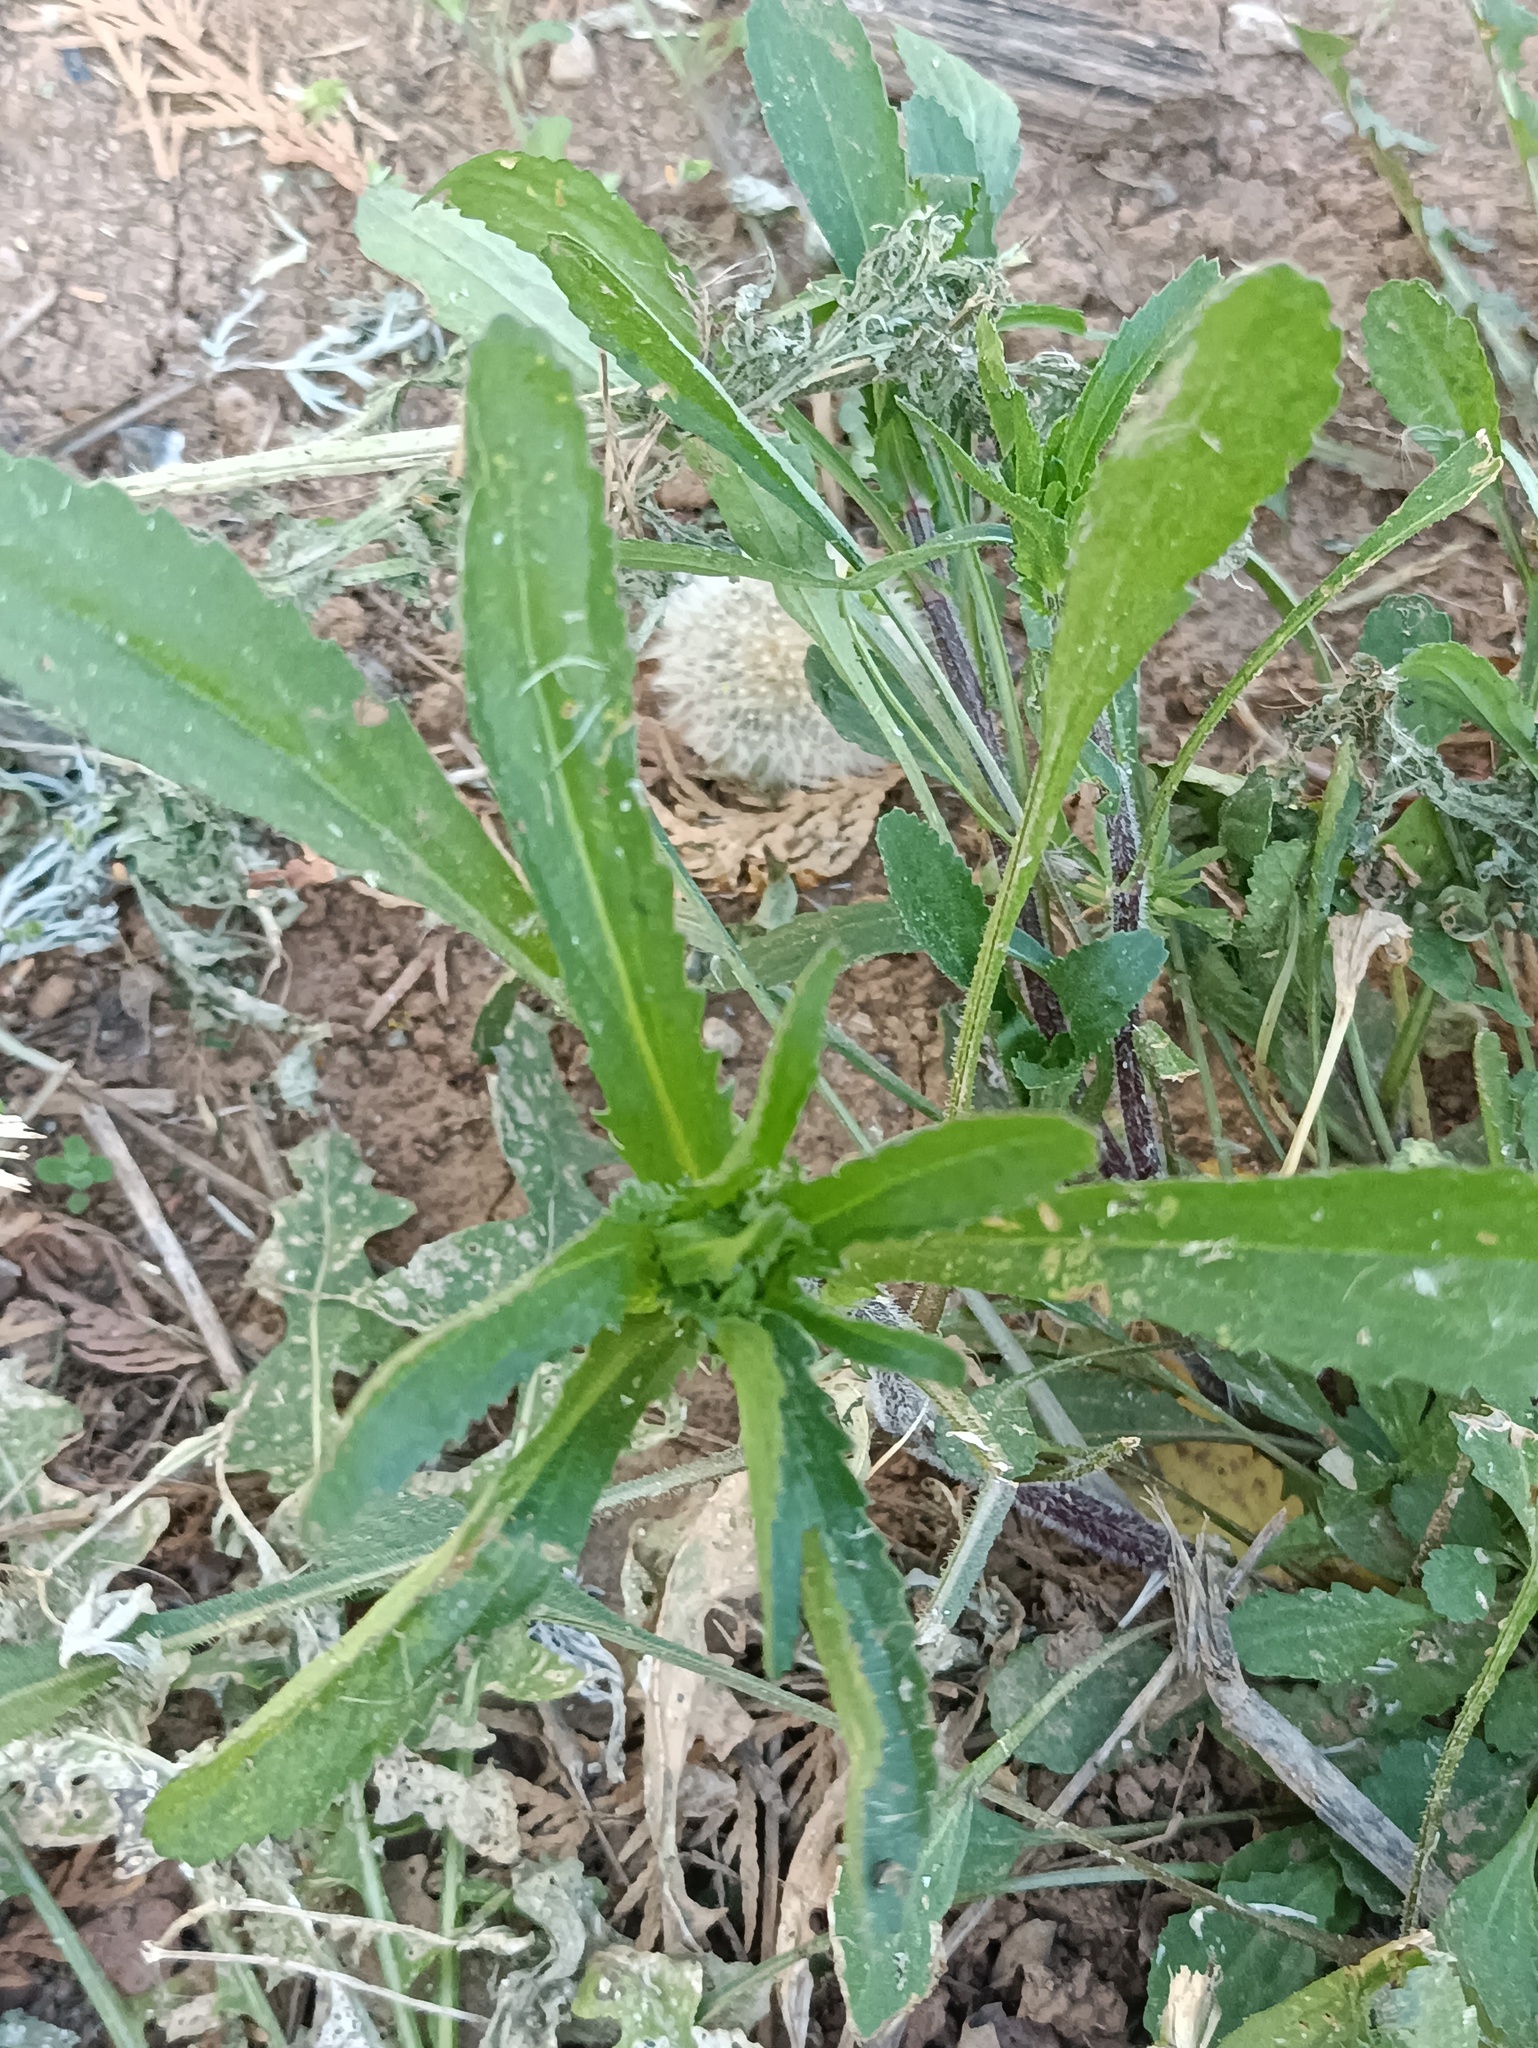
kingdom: Plantae
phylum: Tracheophyta
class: Magnoliopsida
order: Asterales
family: Asteraceae
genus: Leucanthemum
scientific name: Leucanthemum vulgare
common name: Oxeye daisy
